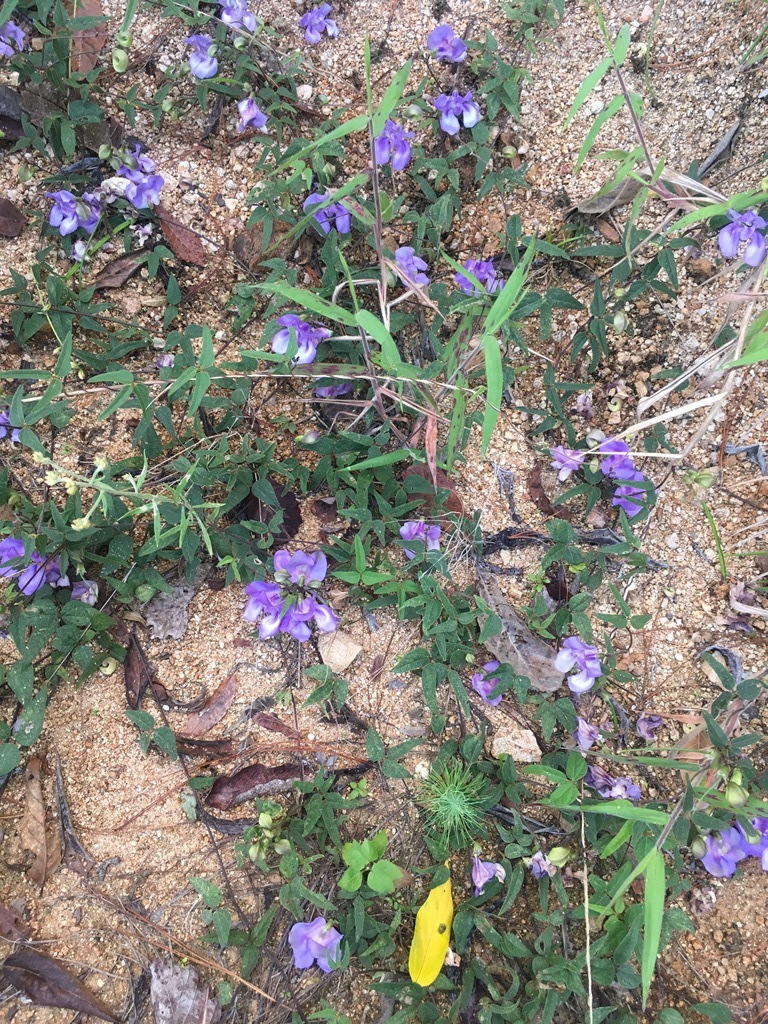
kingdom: Plantae
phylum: Tracheophyta
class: Magnoliopsida
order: Fabales
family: Fabaceae
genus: Sigmoidotropis
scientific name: Sigmoidotropis speciosa
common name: Snail flower
